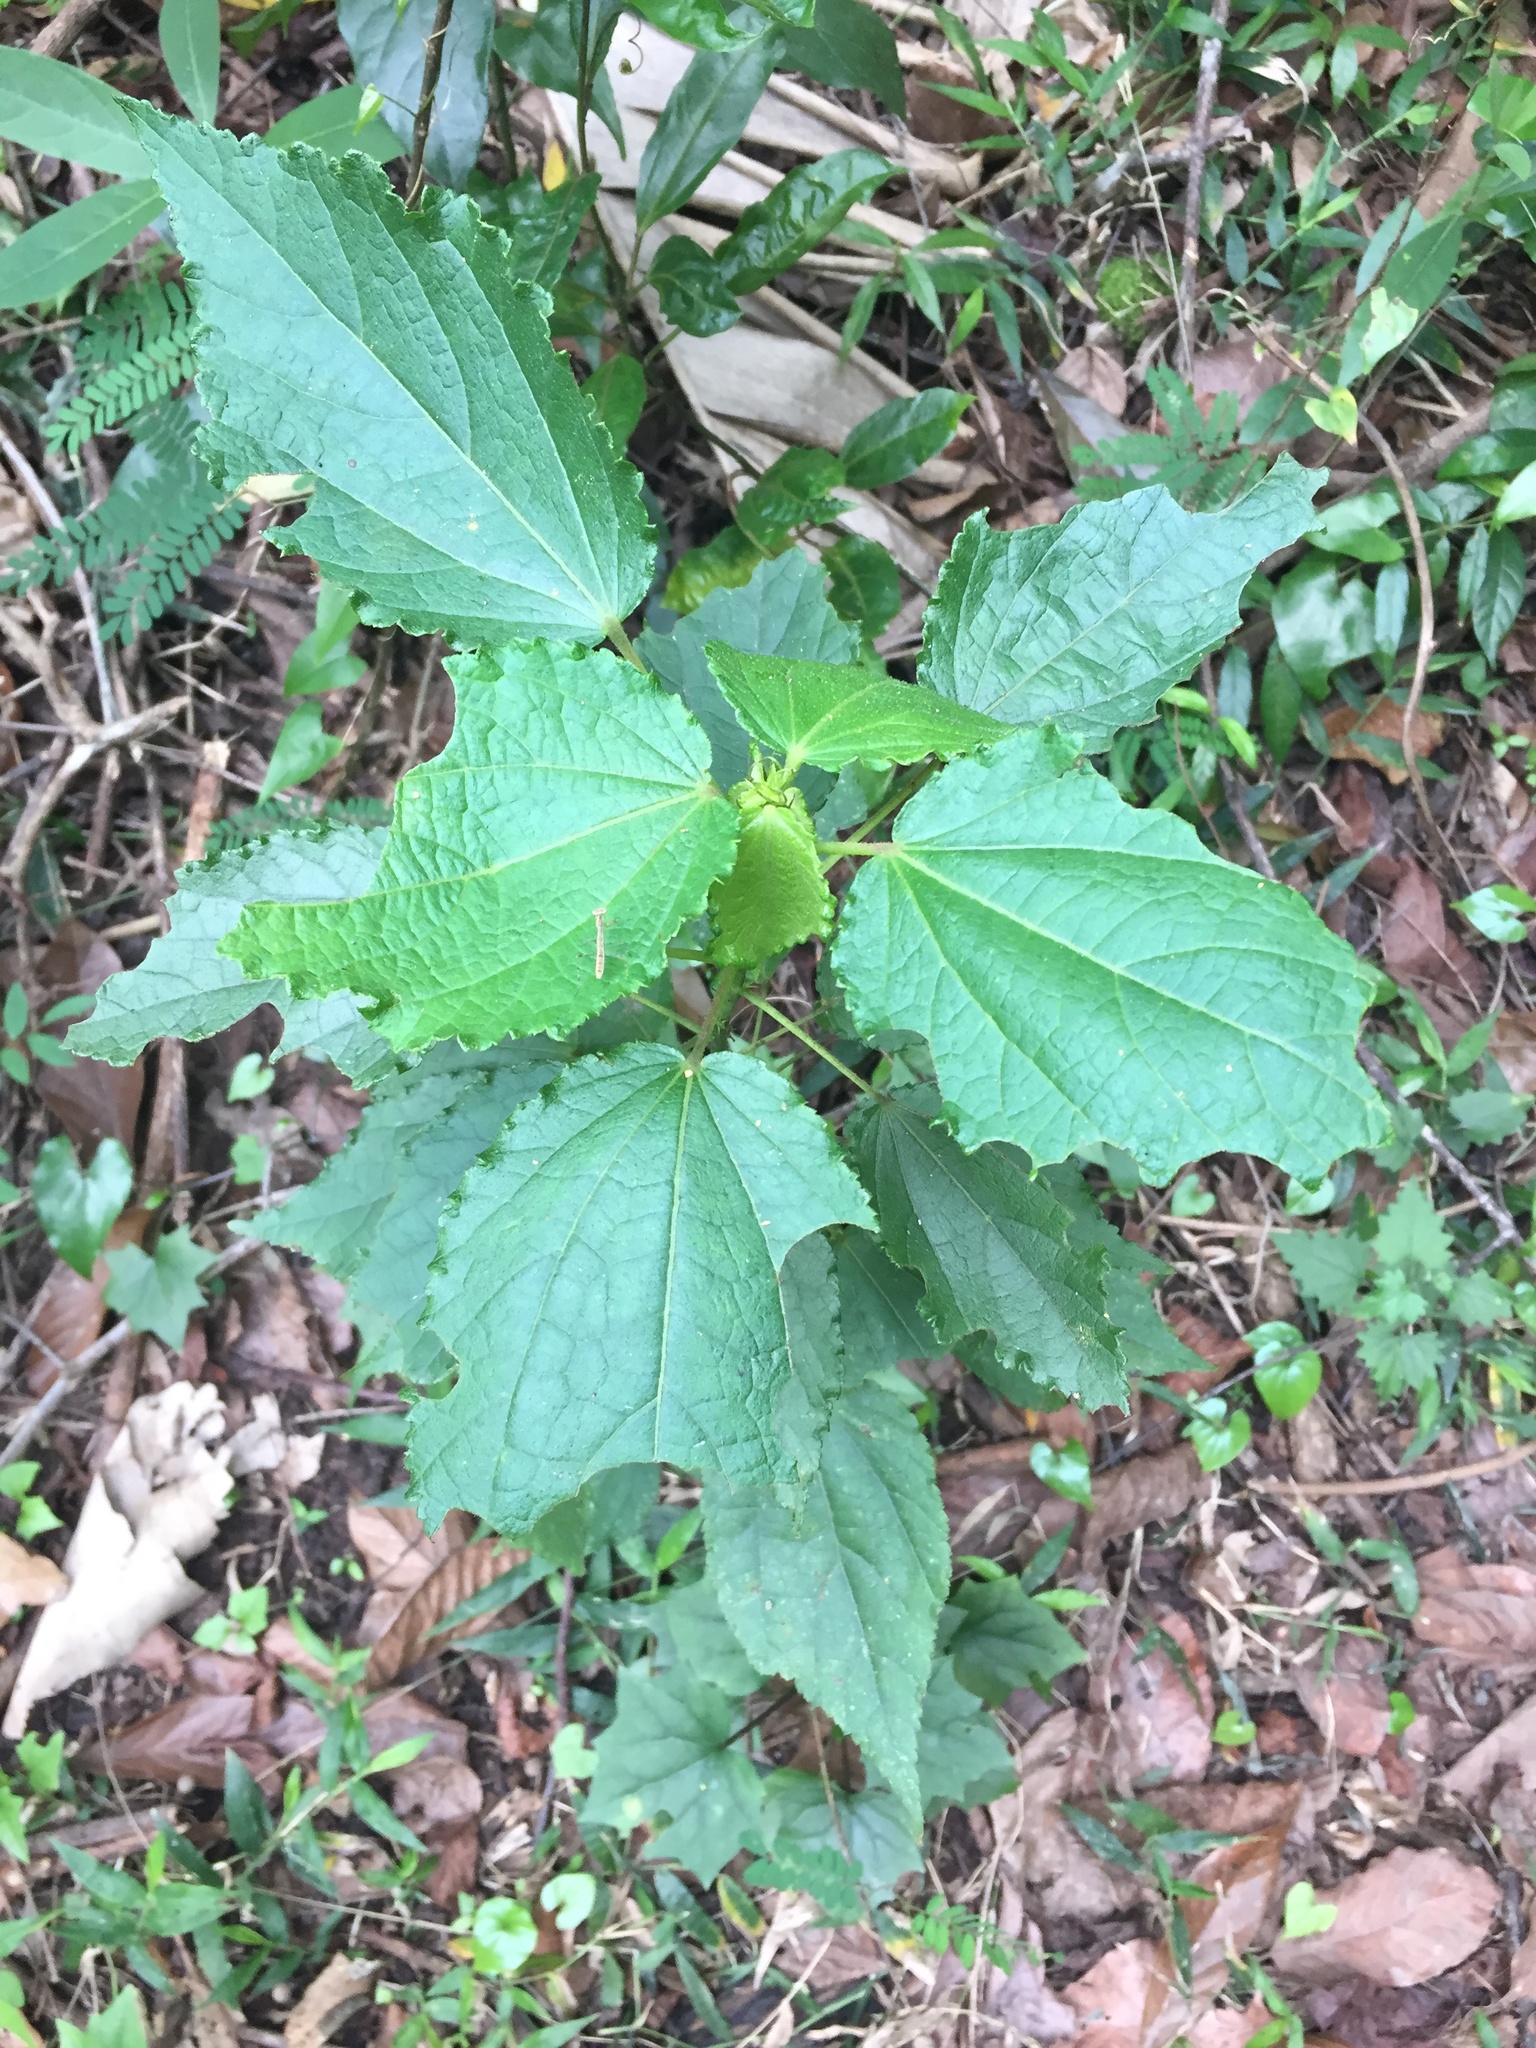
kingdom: Plantae
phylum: Tracheophyta
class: Magnoliopsida
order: Malvales
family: Malvaceae
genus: Triumfetta
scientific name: Triumfetta pilosa
